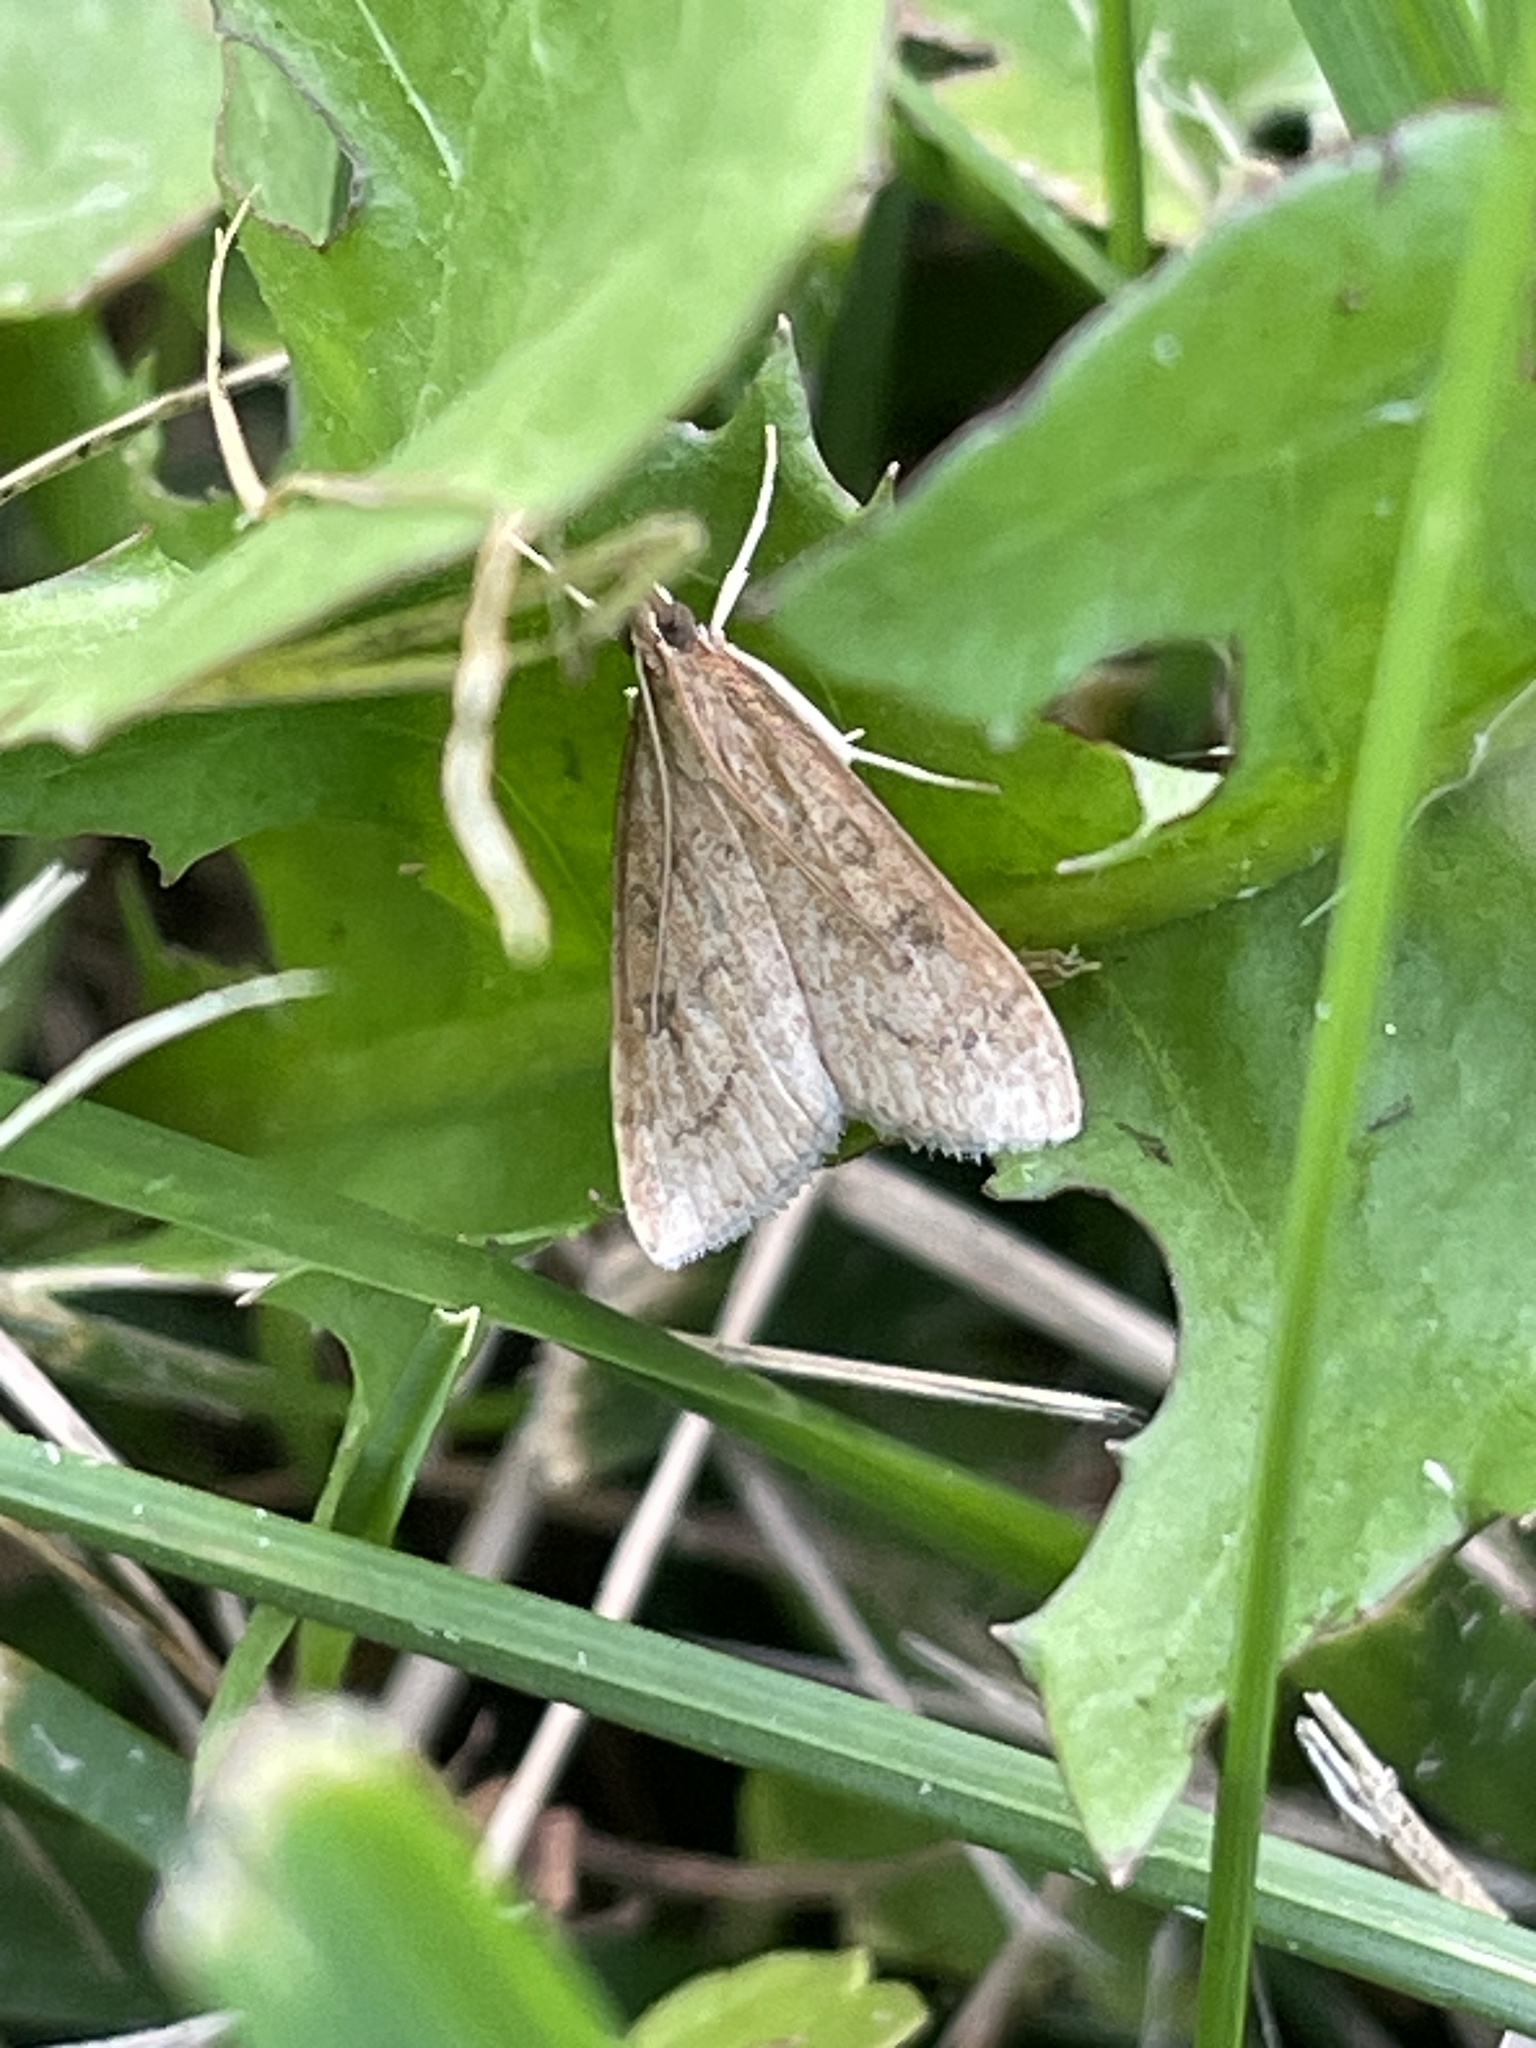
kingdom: Animalia
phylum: Arthropoda
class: Insecta
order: Lepidoptera
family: Crambidae
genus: Udea
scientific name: Udea rubigalis
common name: Celery leaftier moth
